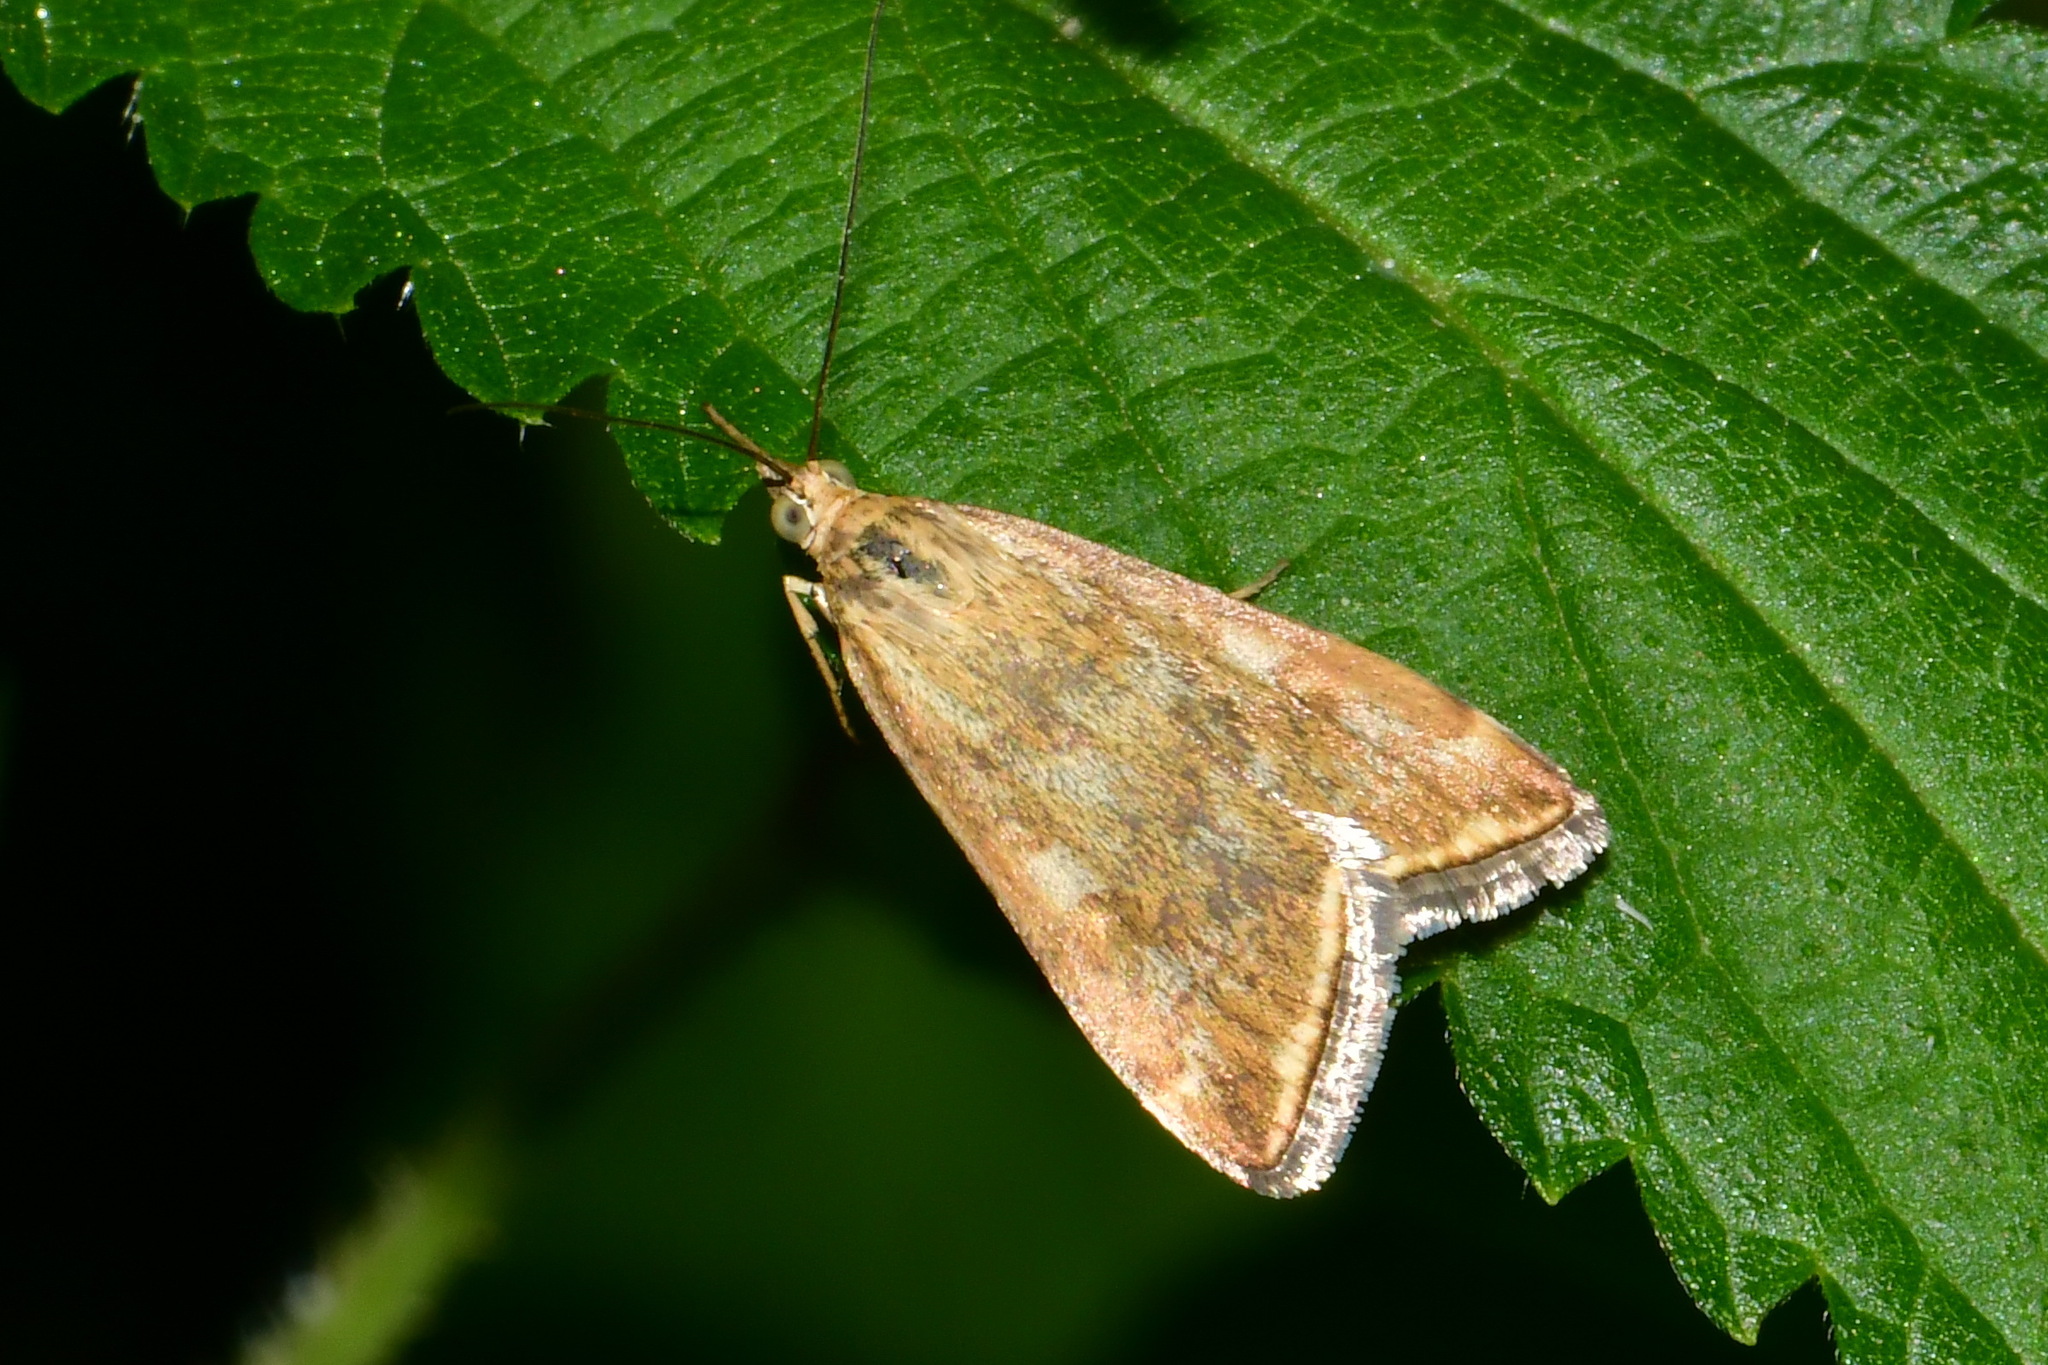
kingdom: Animalia
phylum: Arthropoda
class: Insecta
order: Lepidoptera
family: Crambidae
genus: Loxostege
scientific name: Loxostege sticticalis
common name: Crambid moth
